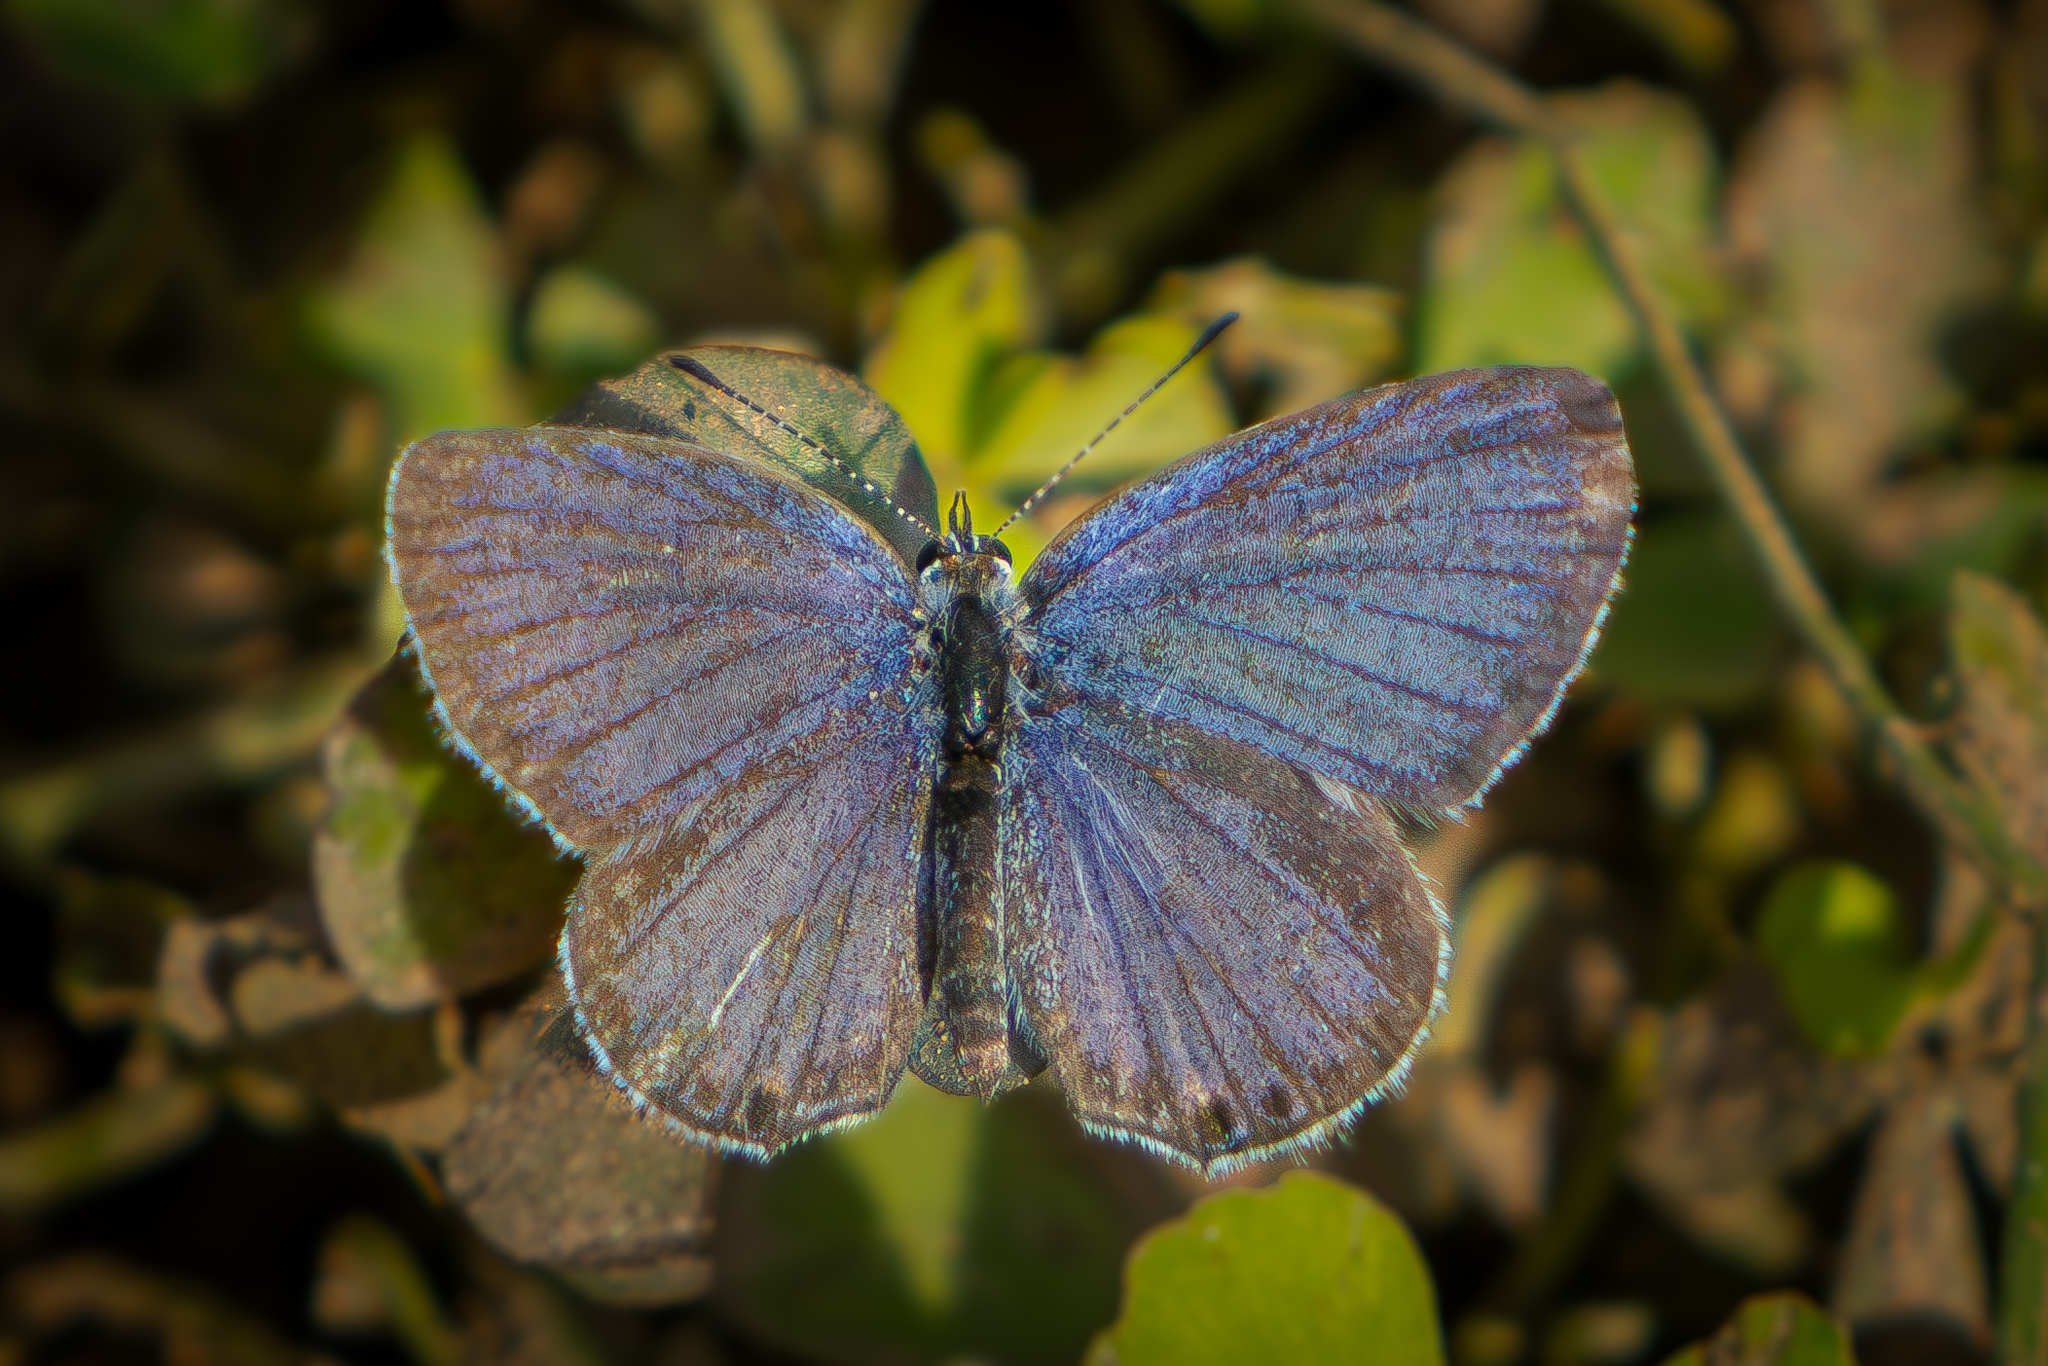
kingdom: Animalia
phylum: Arthropoda
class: Insecta
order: Lepidoptera
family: Lycaenidae
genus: Elkalyce
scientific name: Elkalyce comyntas
